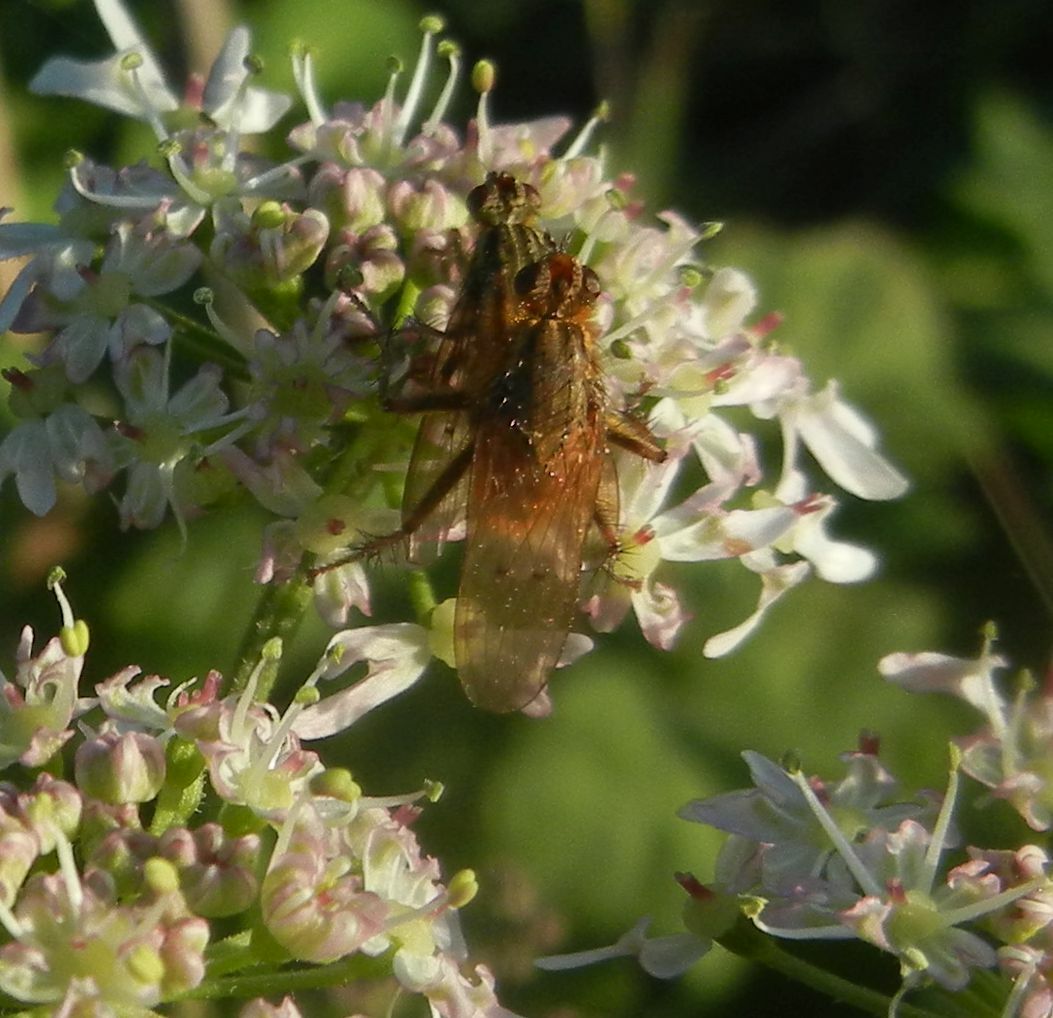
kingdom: Animalia
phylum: Arthropoda
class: Insecta
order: Diptera
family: Scathophagidae
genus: Scathophaga
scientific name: Scathophaga stercoraria
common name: Yellow dung fly
